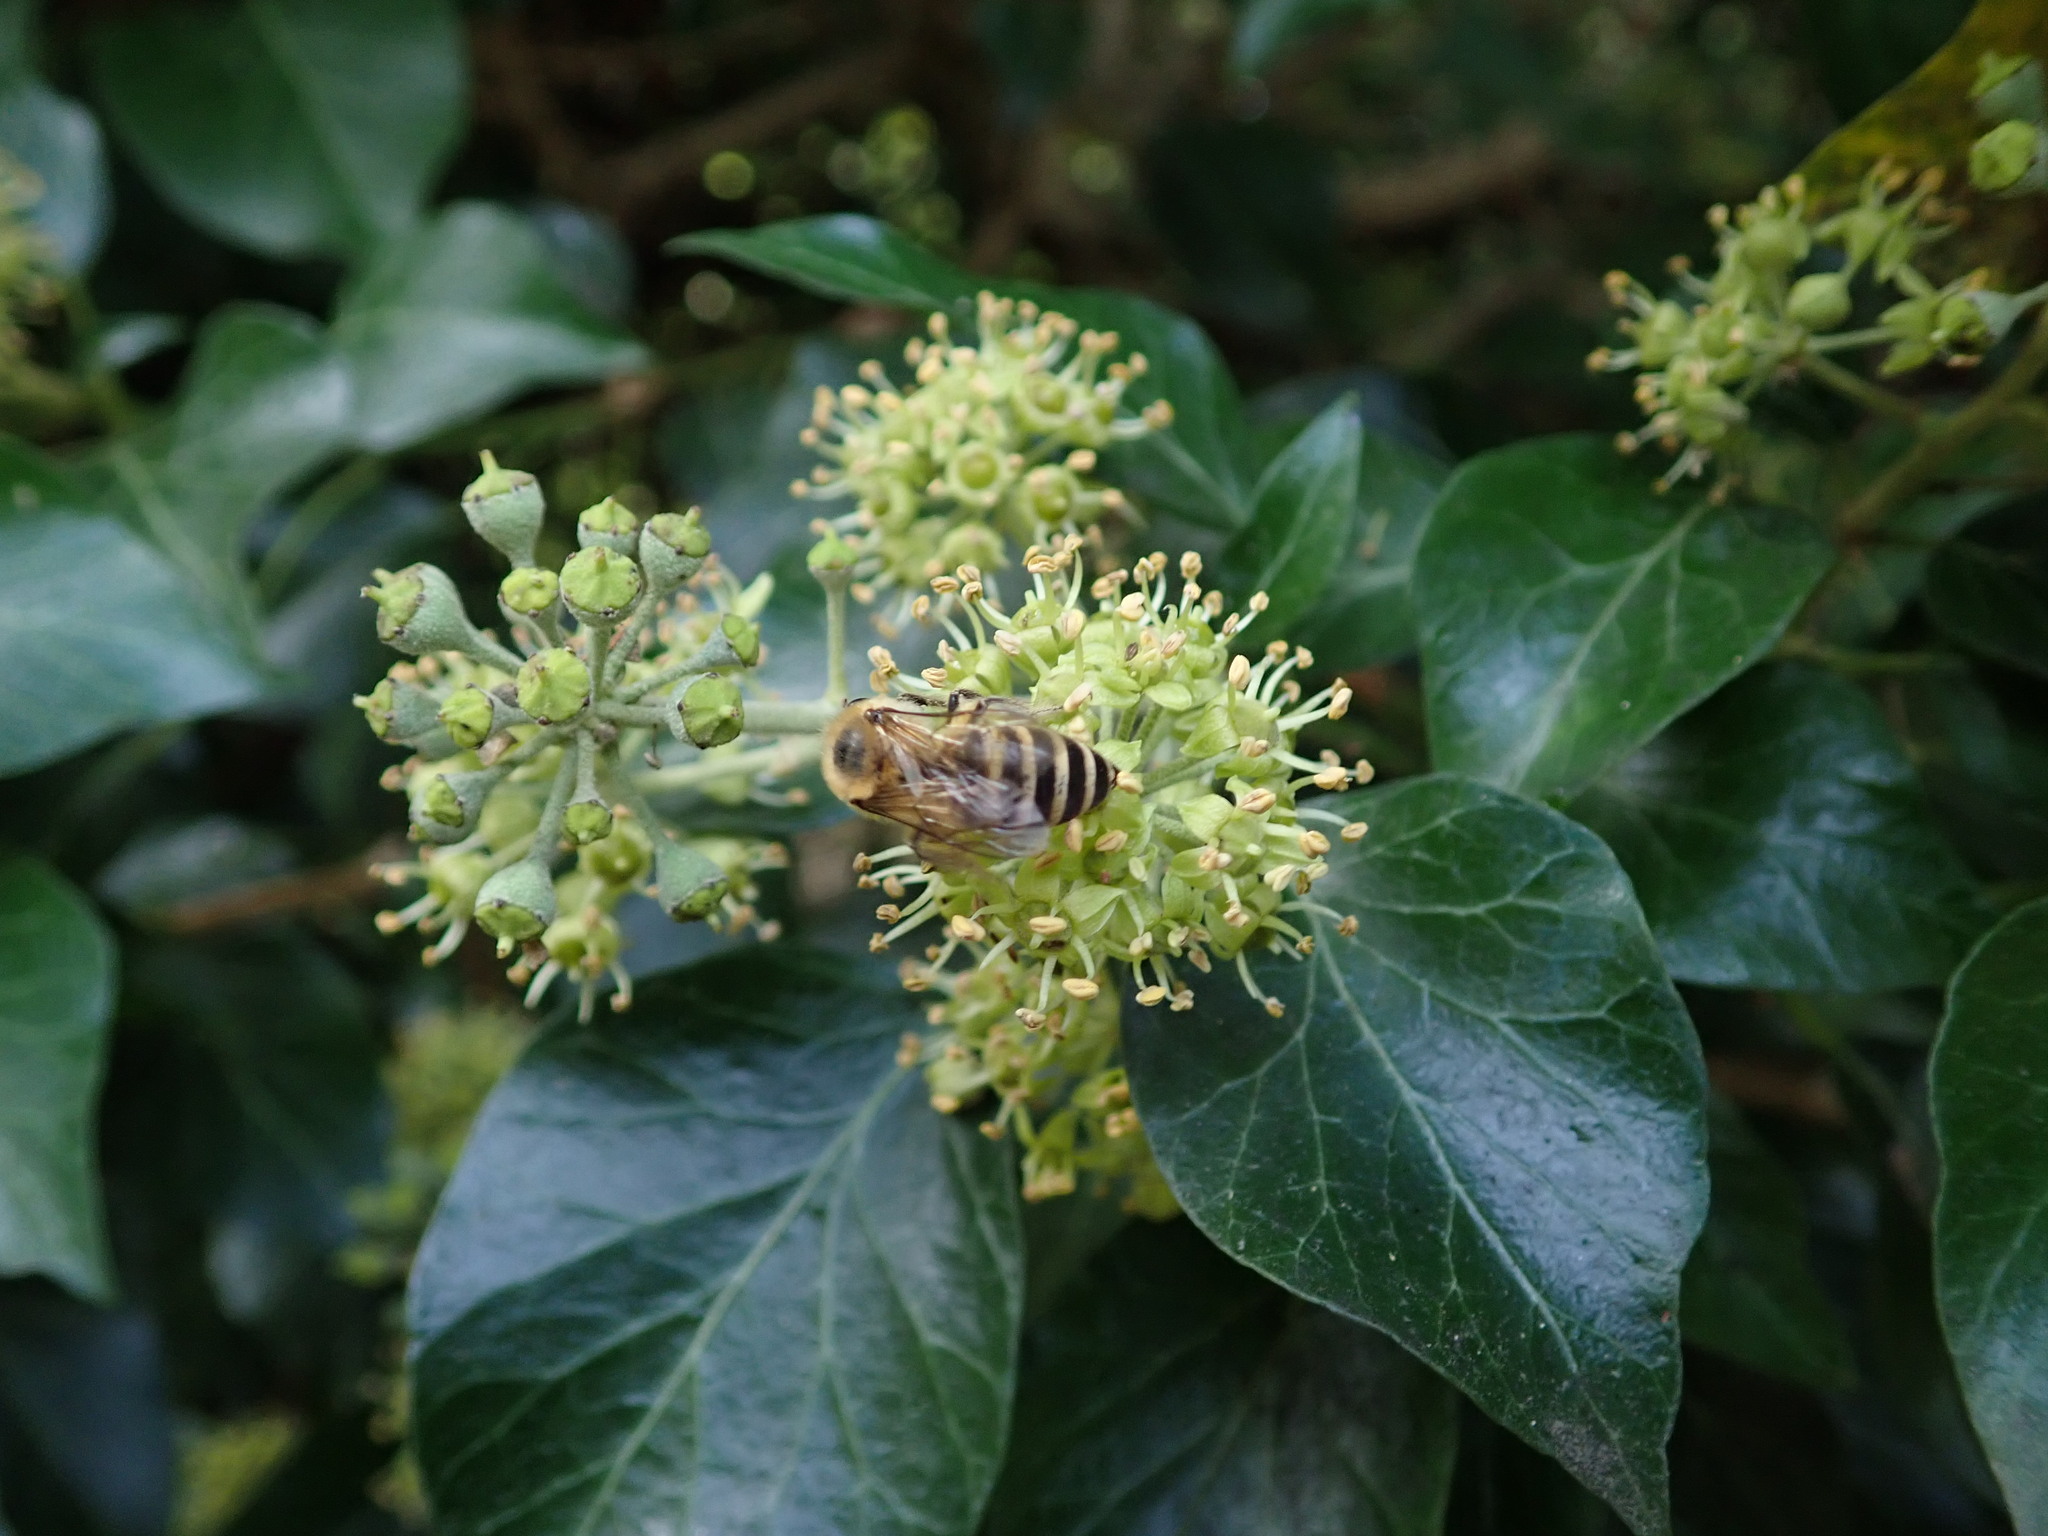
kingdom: Animalia
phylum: Arthropoda
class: Insecta
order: Hymenoptera
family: Colletidae
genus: Colletes
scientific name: Colletes hederae
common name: Ivy bee
